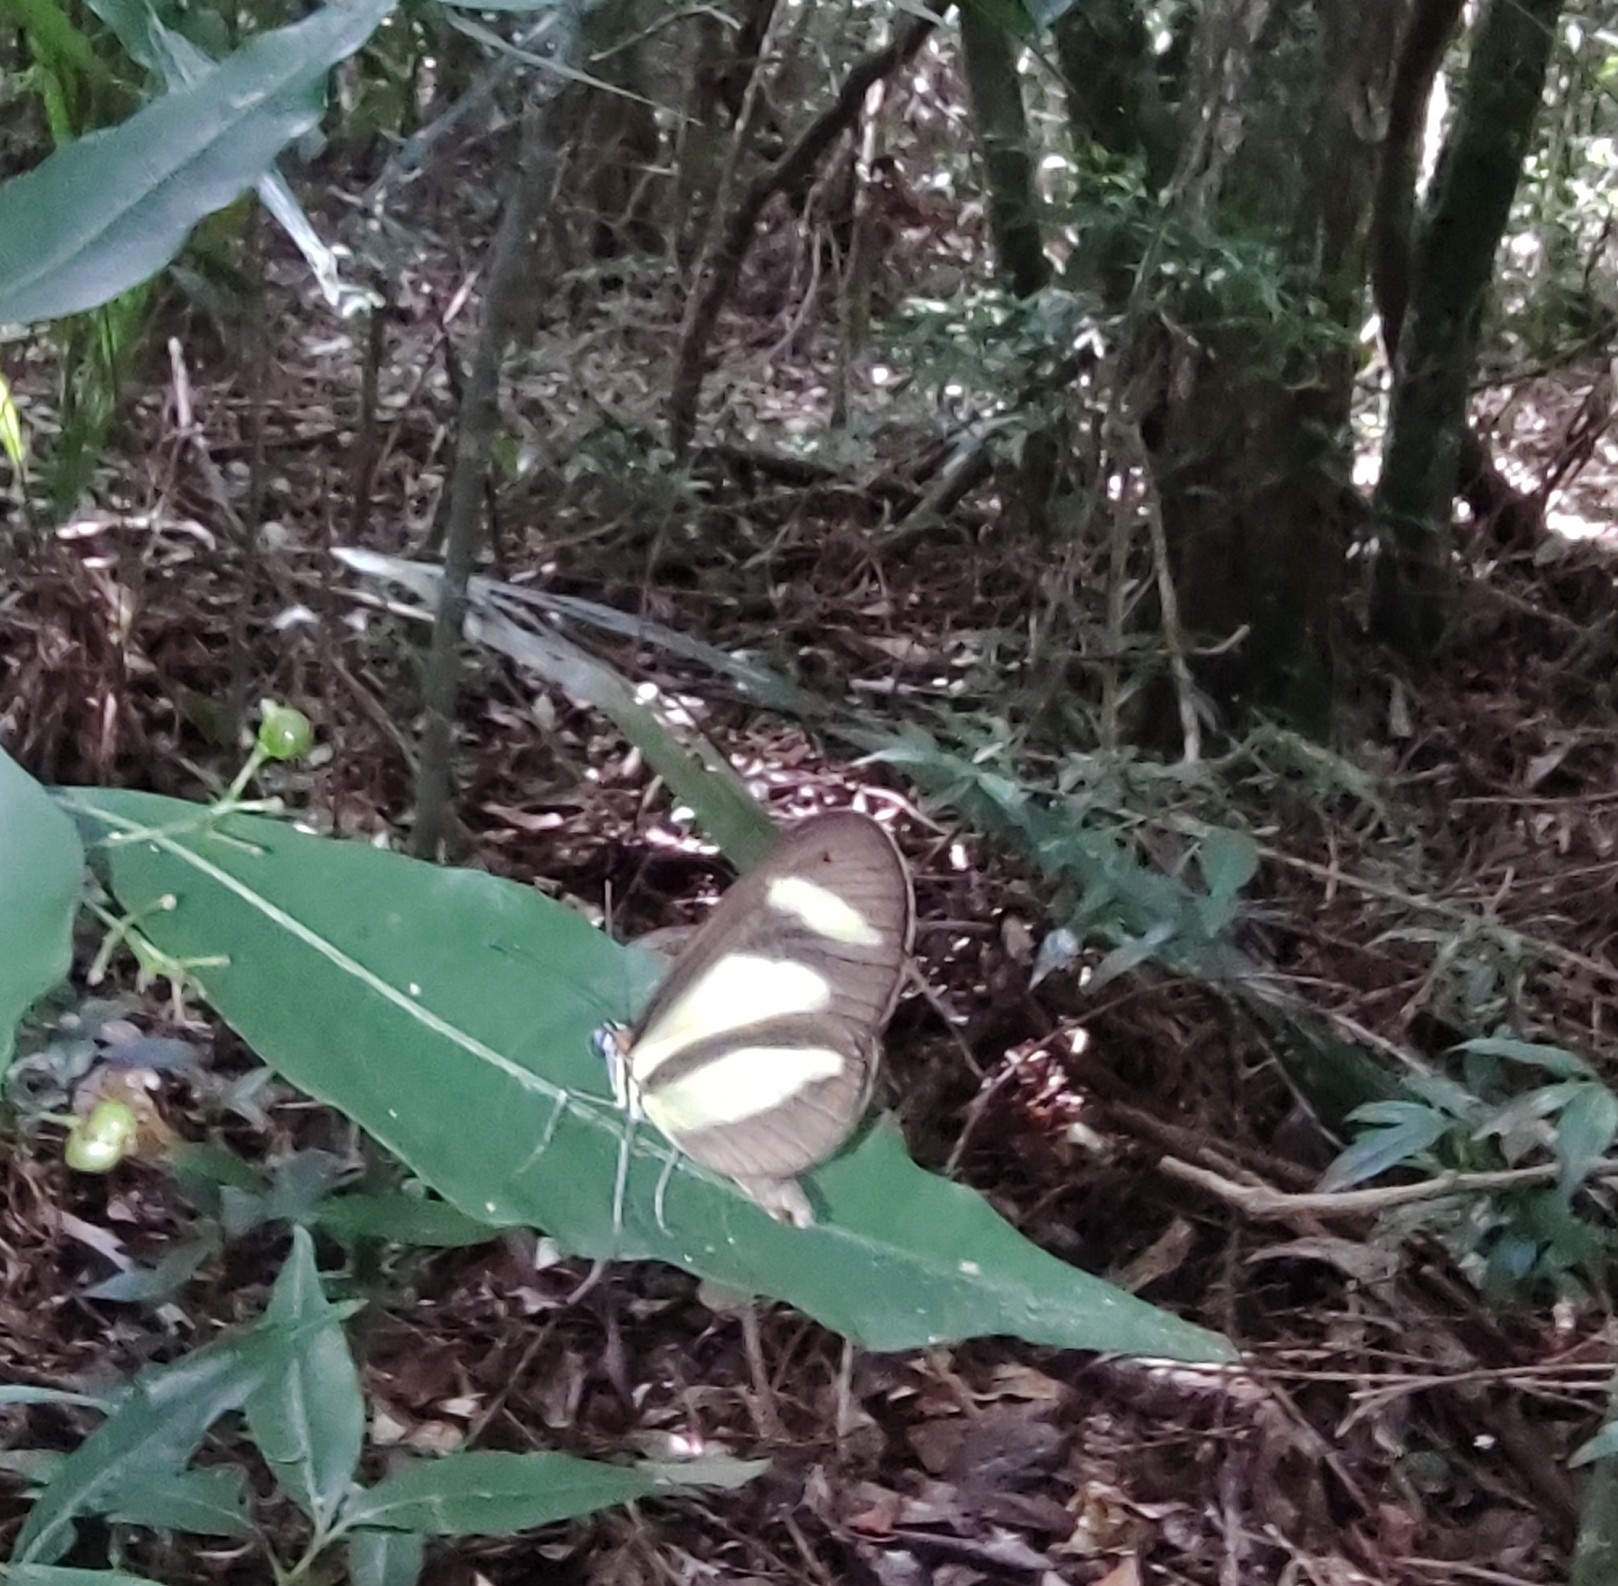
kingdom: Animalia
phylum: Arthropoda
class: Insecta
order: Lepidoptera
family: Nymphalidae
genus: Aeria
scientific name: Aeria olena
